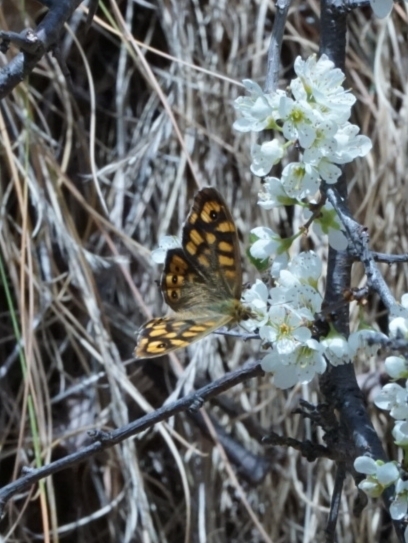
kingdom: Animalia
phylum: Arthropoda
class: Insecta
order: Lepidoptera
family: Nymphalidae
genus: Pararge
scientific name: Pararge aegeria
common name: Speckled wood
